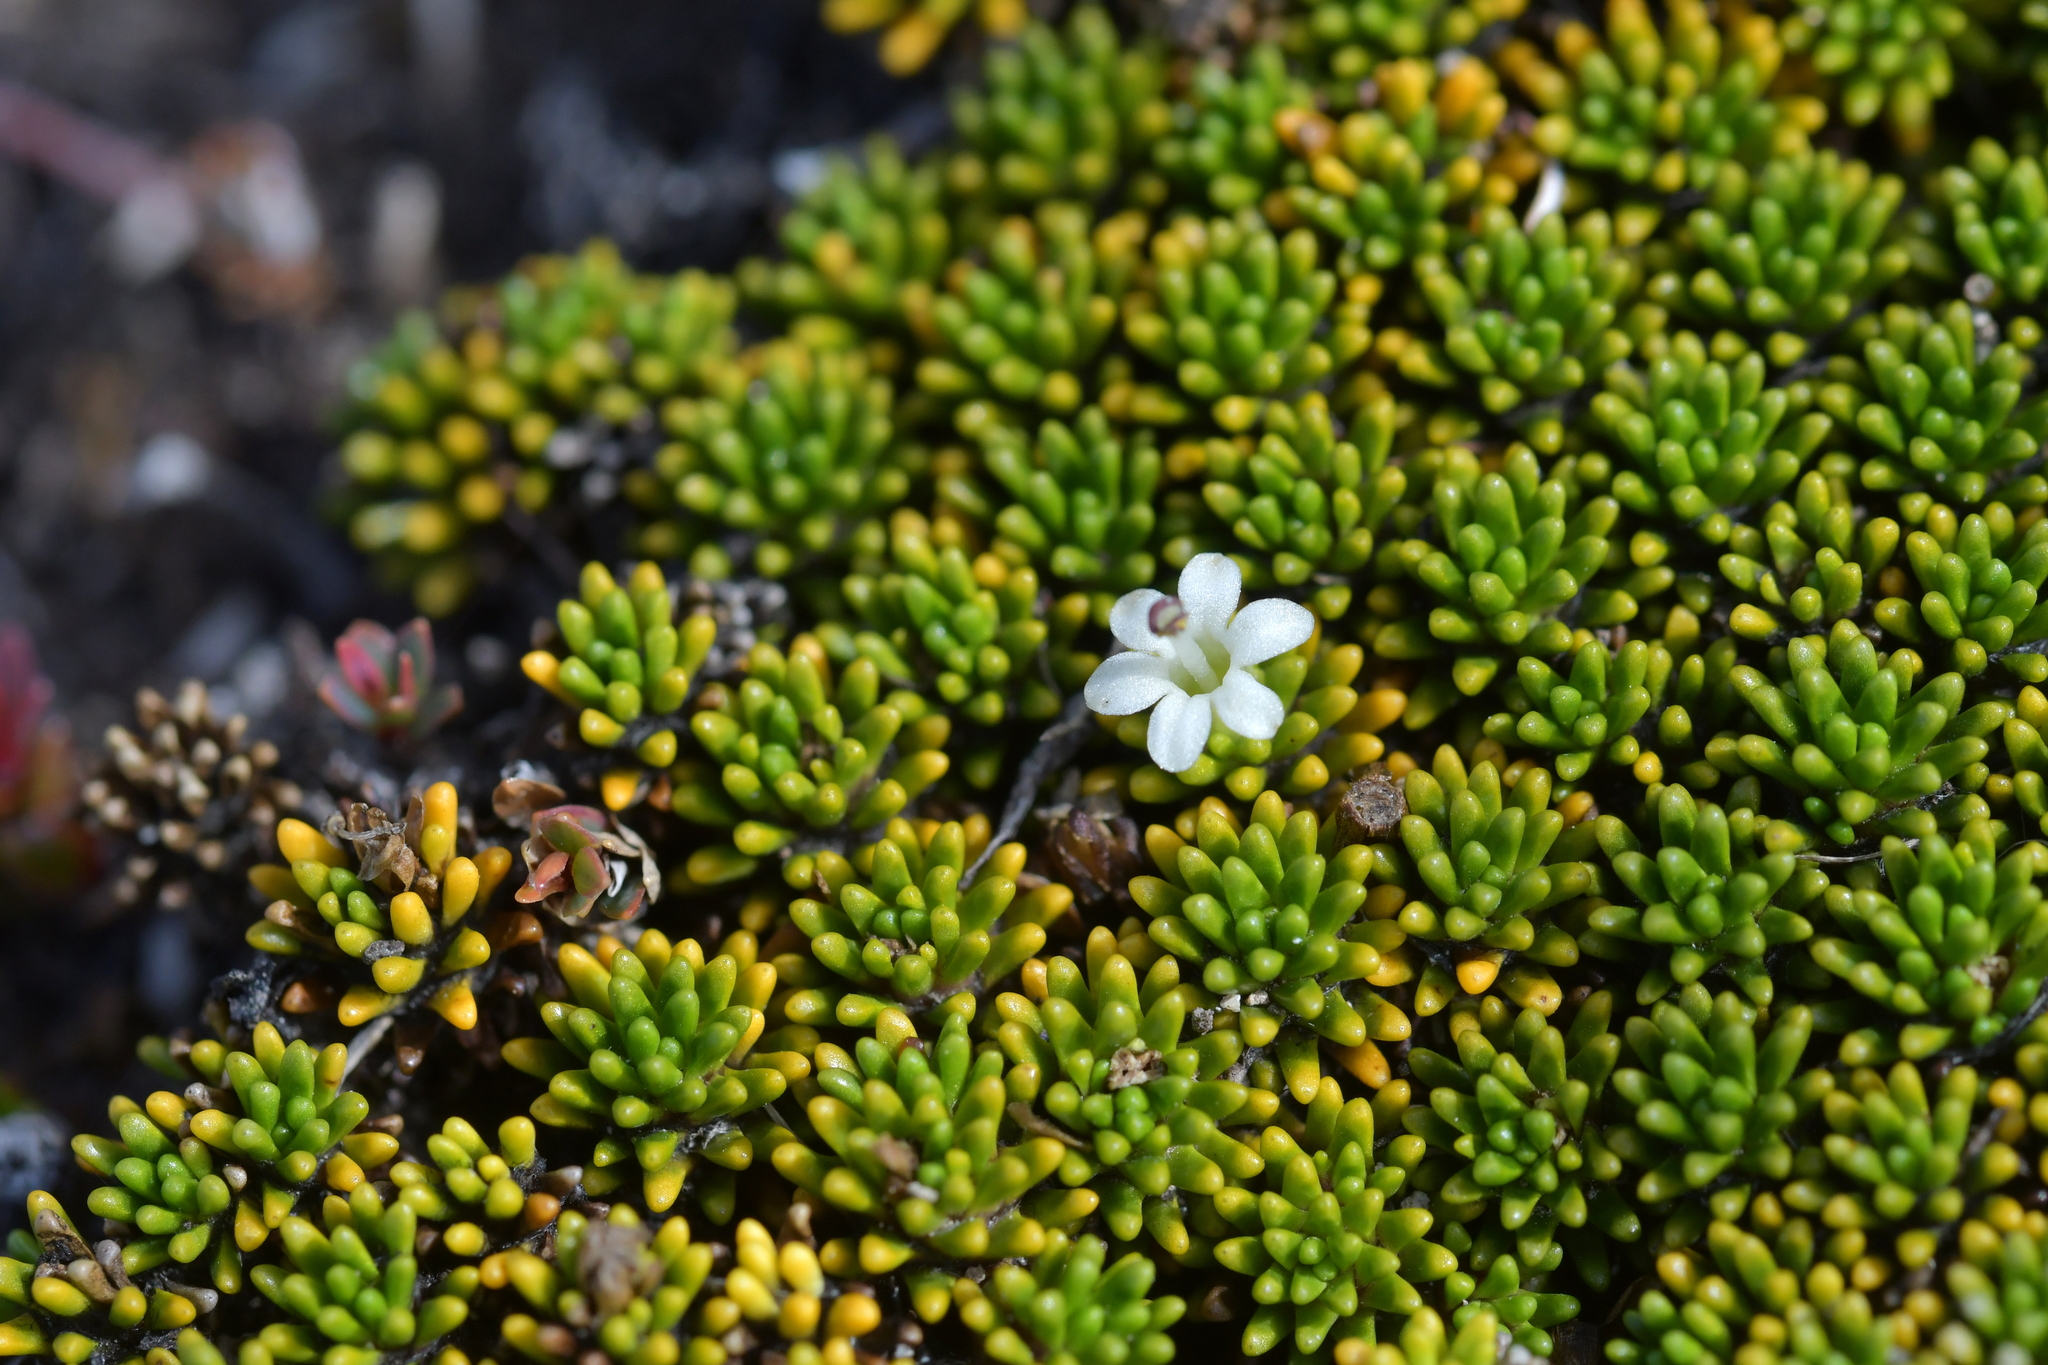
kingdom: Plantae
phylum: Tracheophyta
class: Magnoliopsida
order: Asterales
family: Stylidiaceae
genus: Phyllachne
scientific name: Phyllachne colensoi
